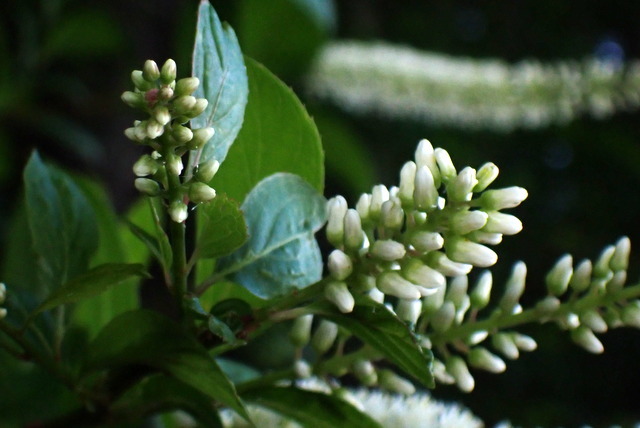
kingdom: Plantae
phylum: Tracheophyta
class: Magnoliopsida
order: Saxifragales
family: Iteaceae
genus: Itea
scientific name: Itea virginica
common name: Sweetspire
